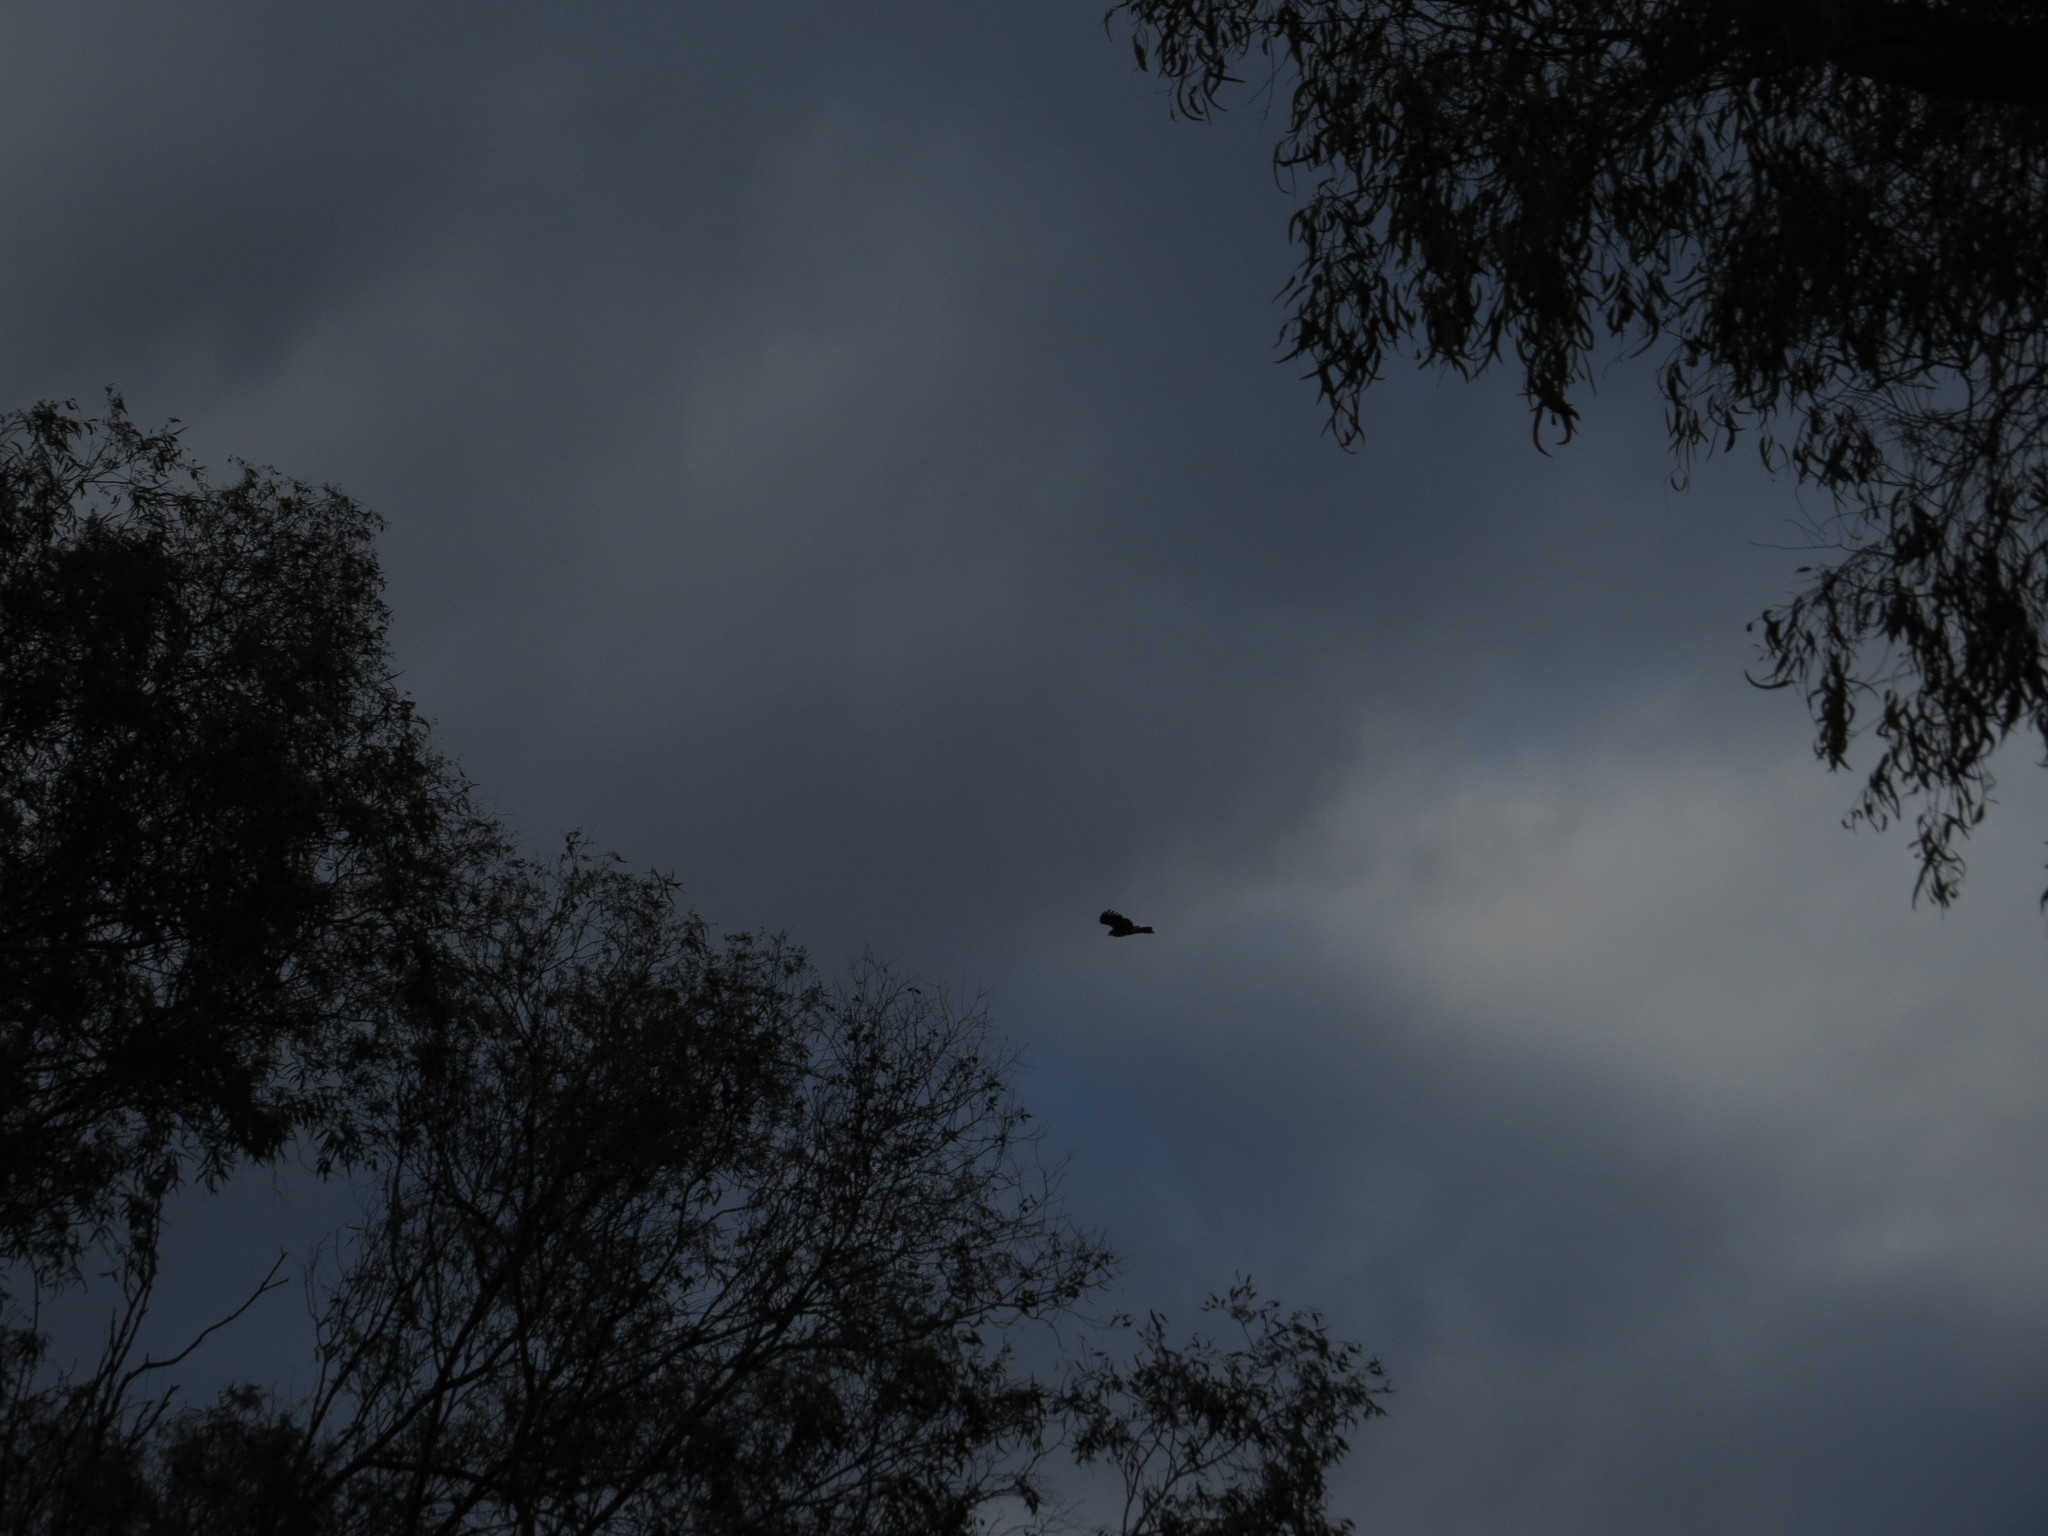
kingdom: Animalia
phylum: Chordata
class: Aves
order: Accipitriformes
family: Accipitridae
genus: Rostrhamus
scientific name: Rostrhamus sociabilis
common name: Snail kite
